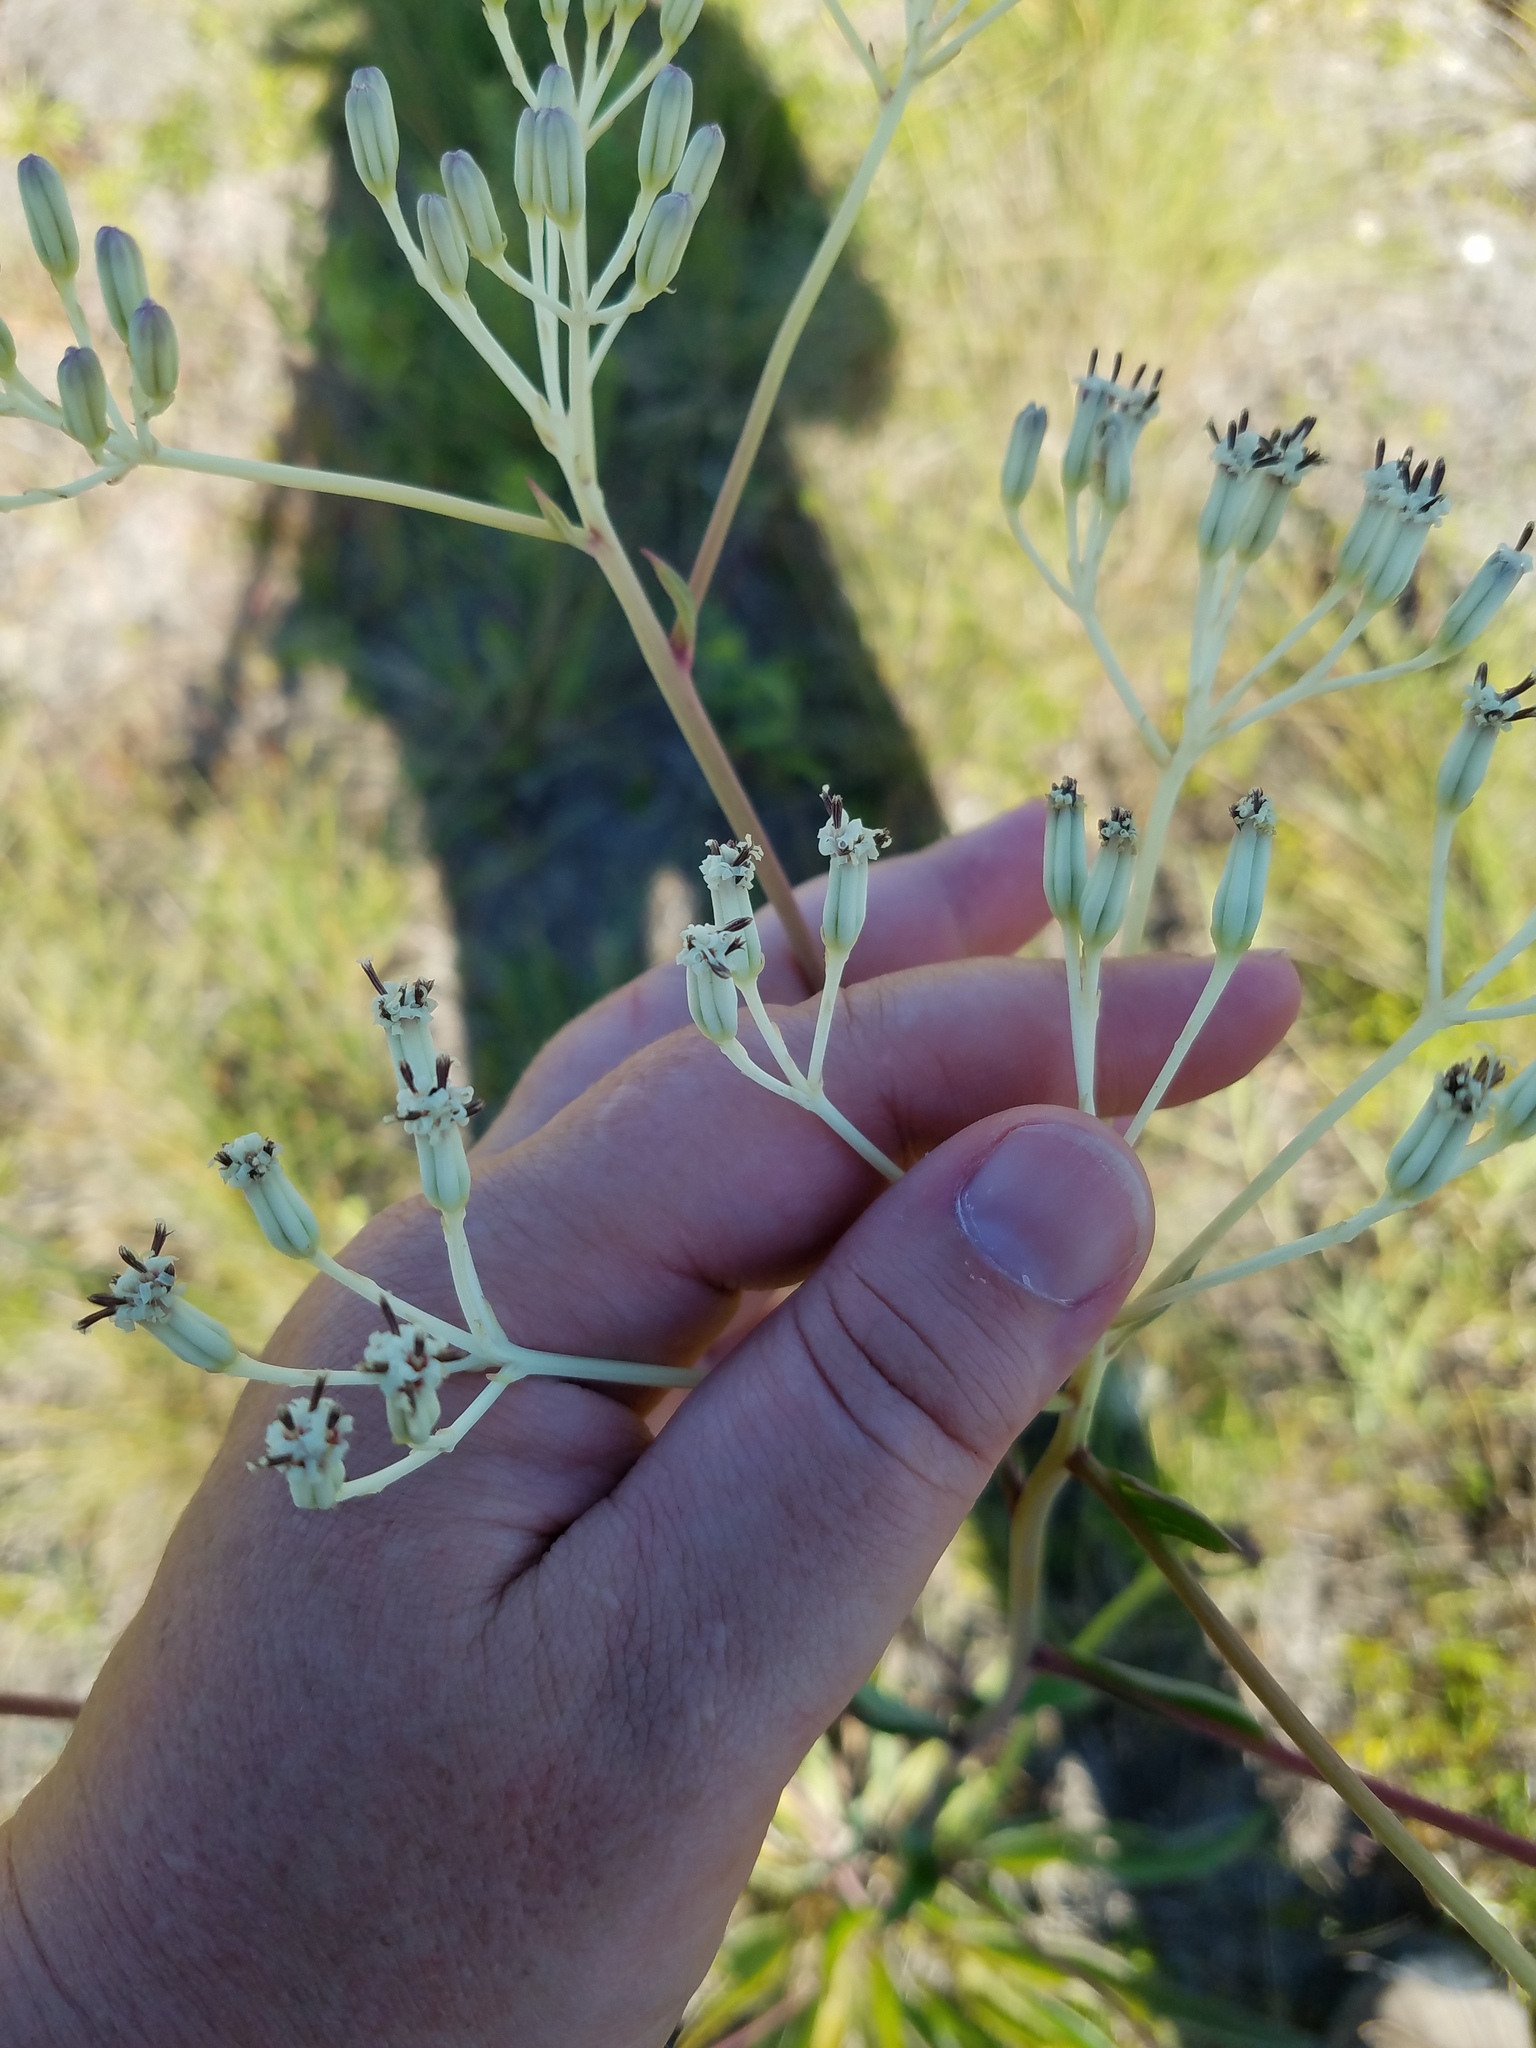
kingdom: Plantae
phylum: Tracheophyta
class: Magnoliopsida
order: Asterales
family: Asteraceae
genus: Arnoglossum
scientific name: Arnoglossum ovatum
